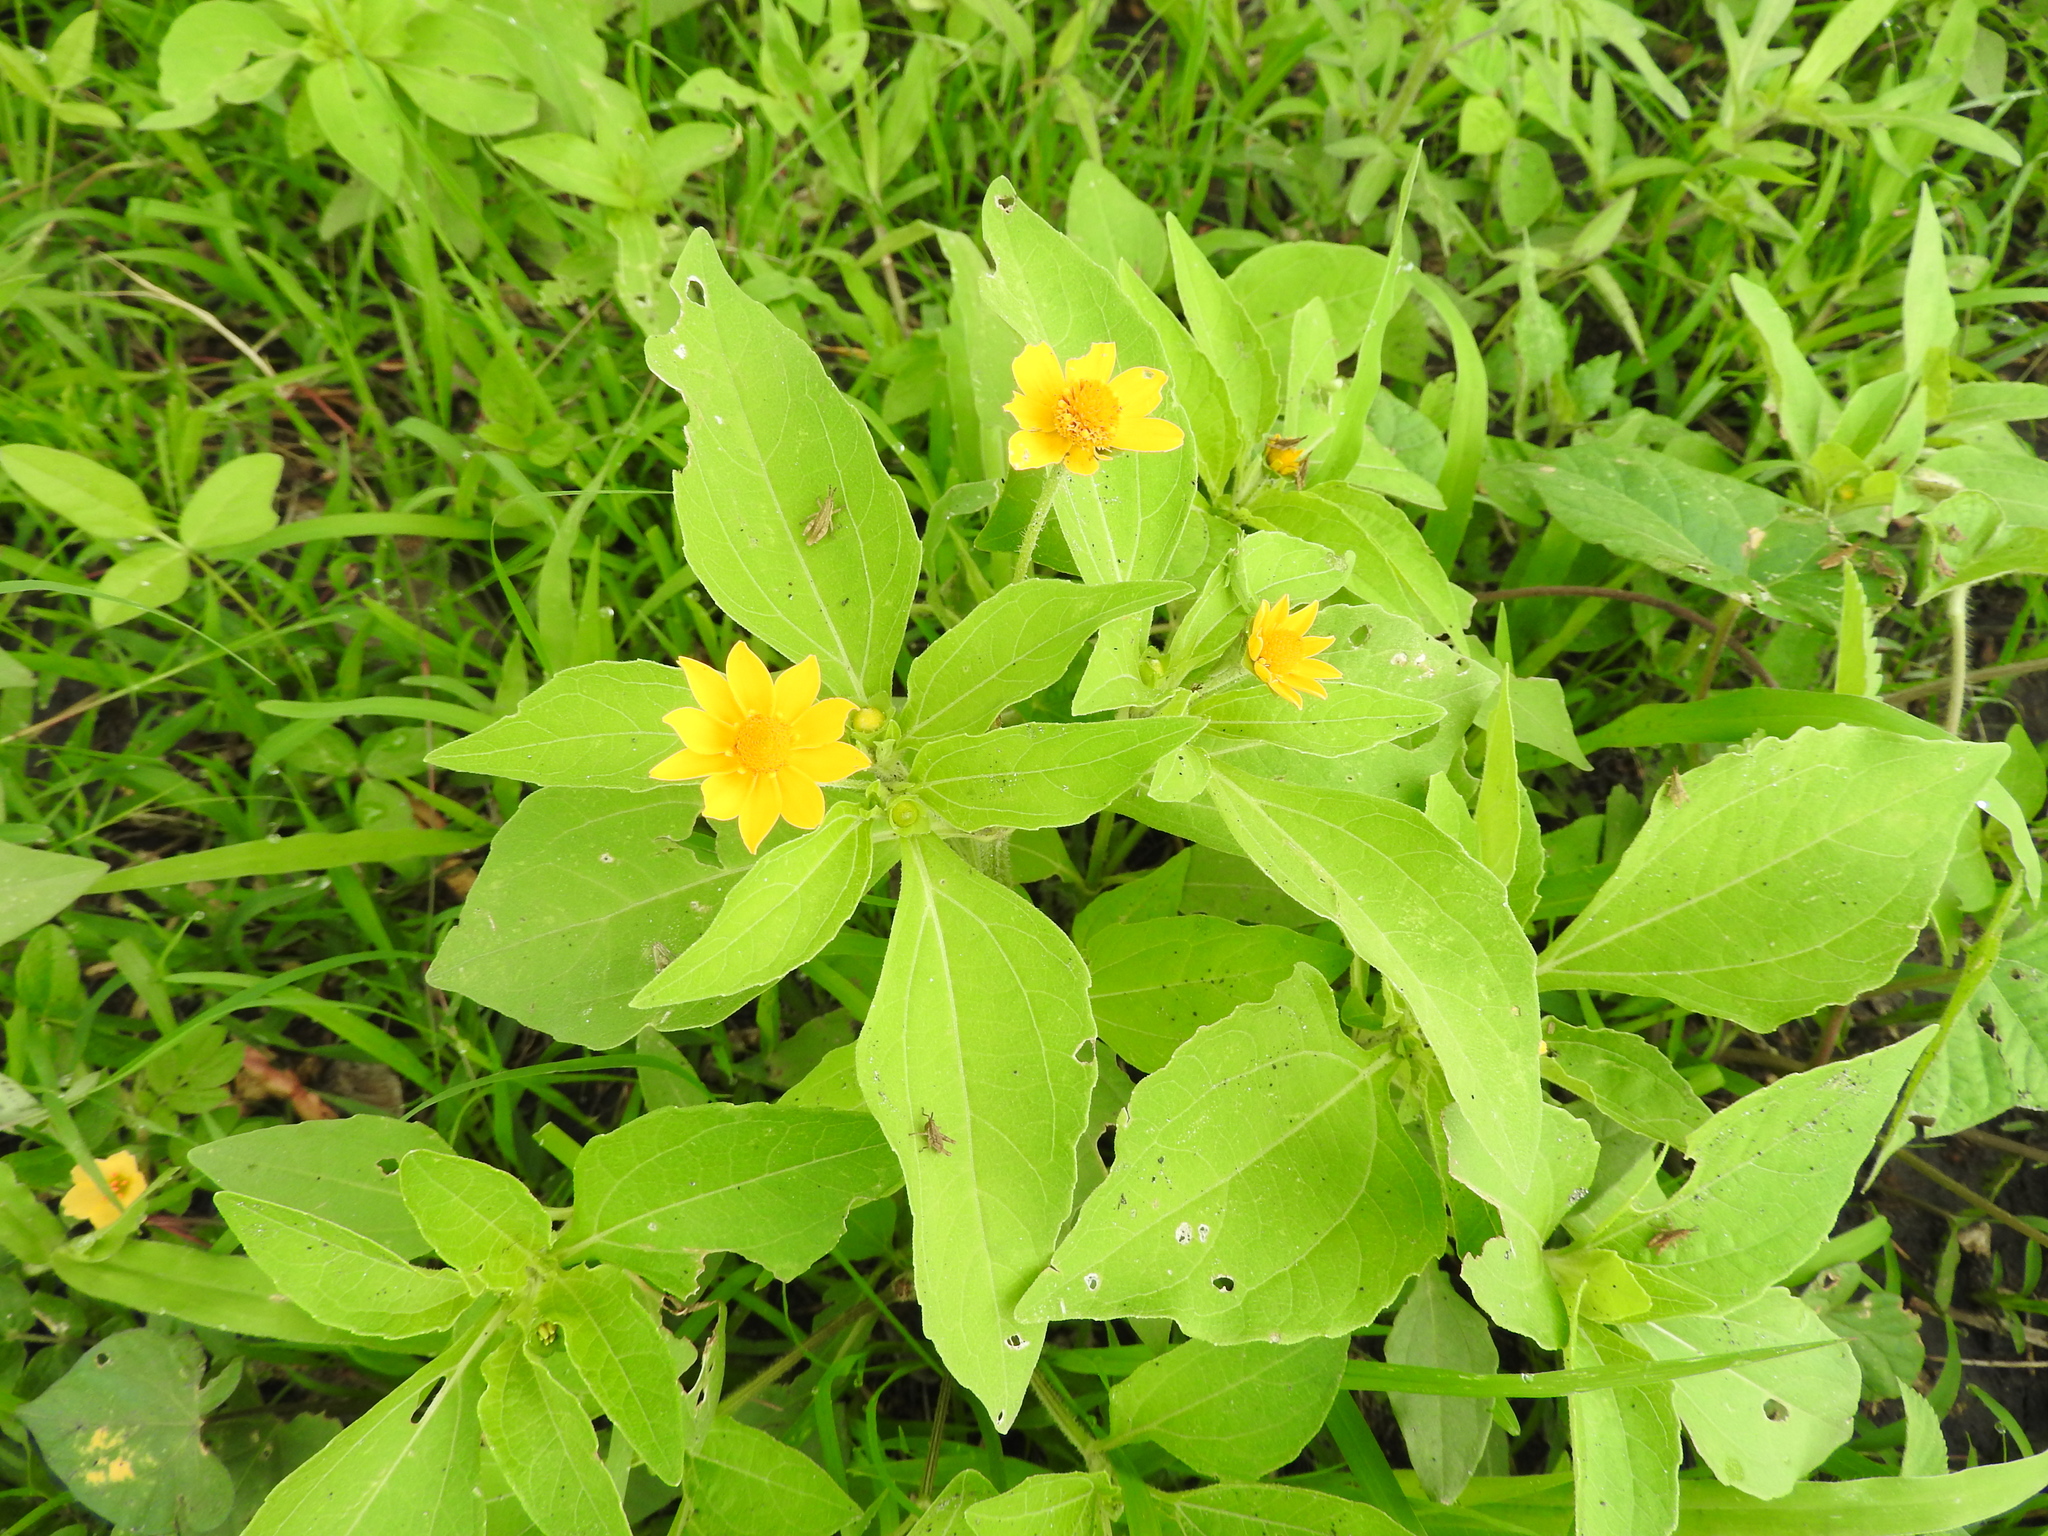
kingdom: Plantae
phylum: Tracheophyta
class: Magnoliopsida
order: Asterales
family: Asteraceae
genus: Melampodium
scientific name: Melampodium divaricatum
